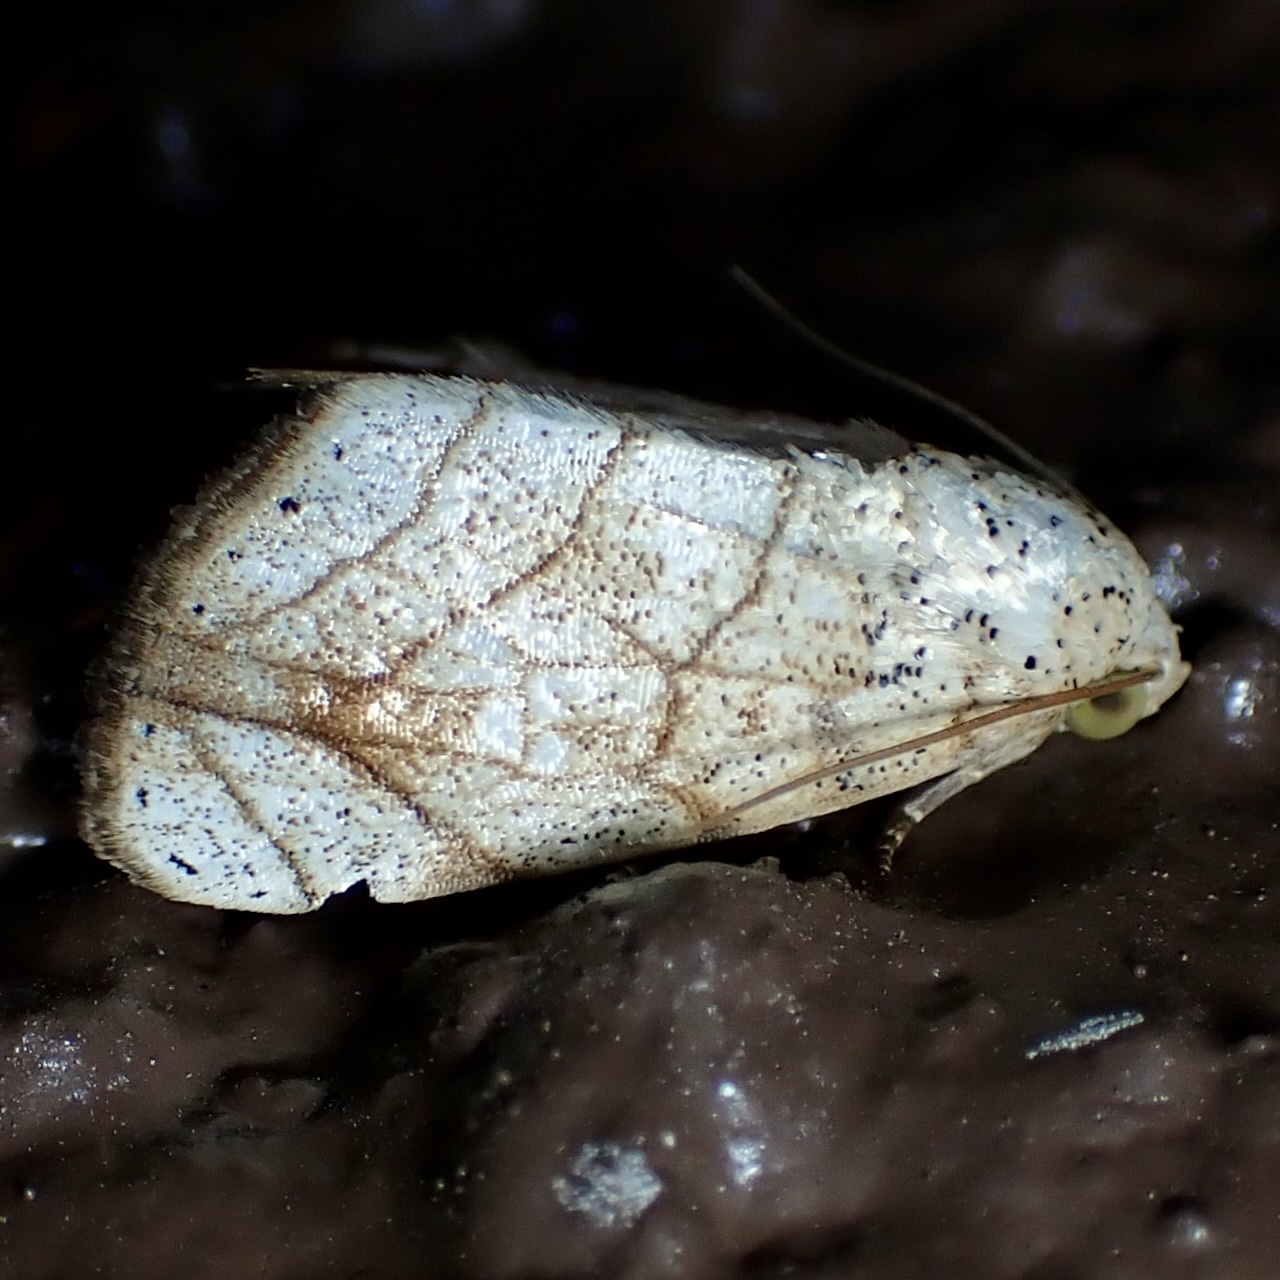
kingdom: Animalia
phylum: Arthropoda
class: Insecta
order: Lepidoptera
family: Noctuidae
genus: Bagisara
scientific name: Bagisara tristicta
